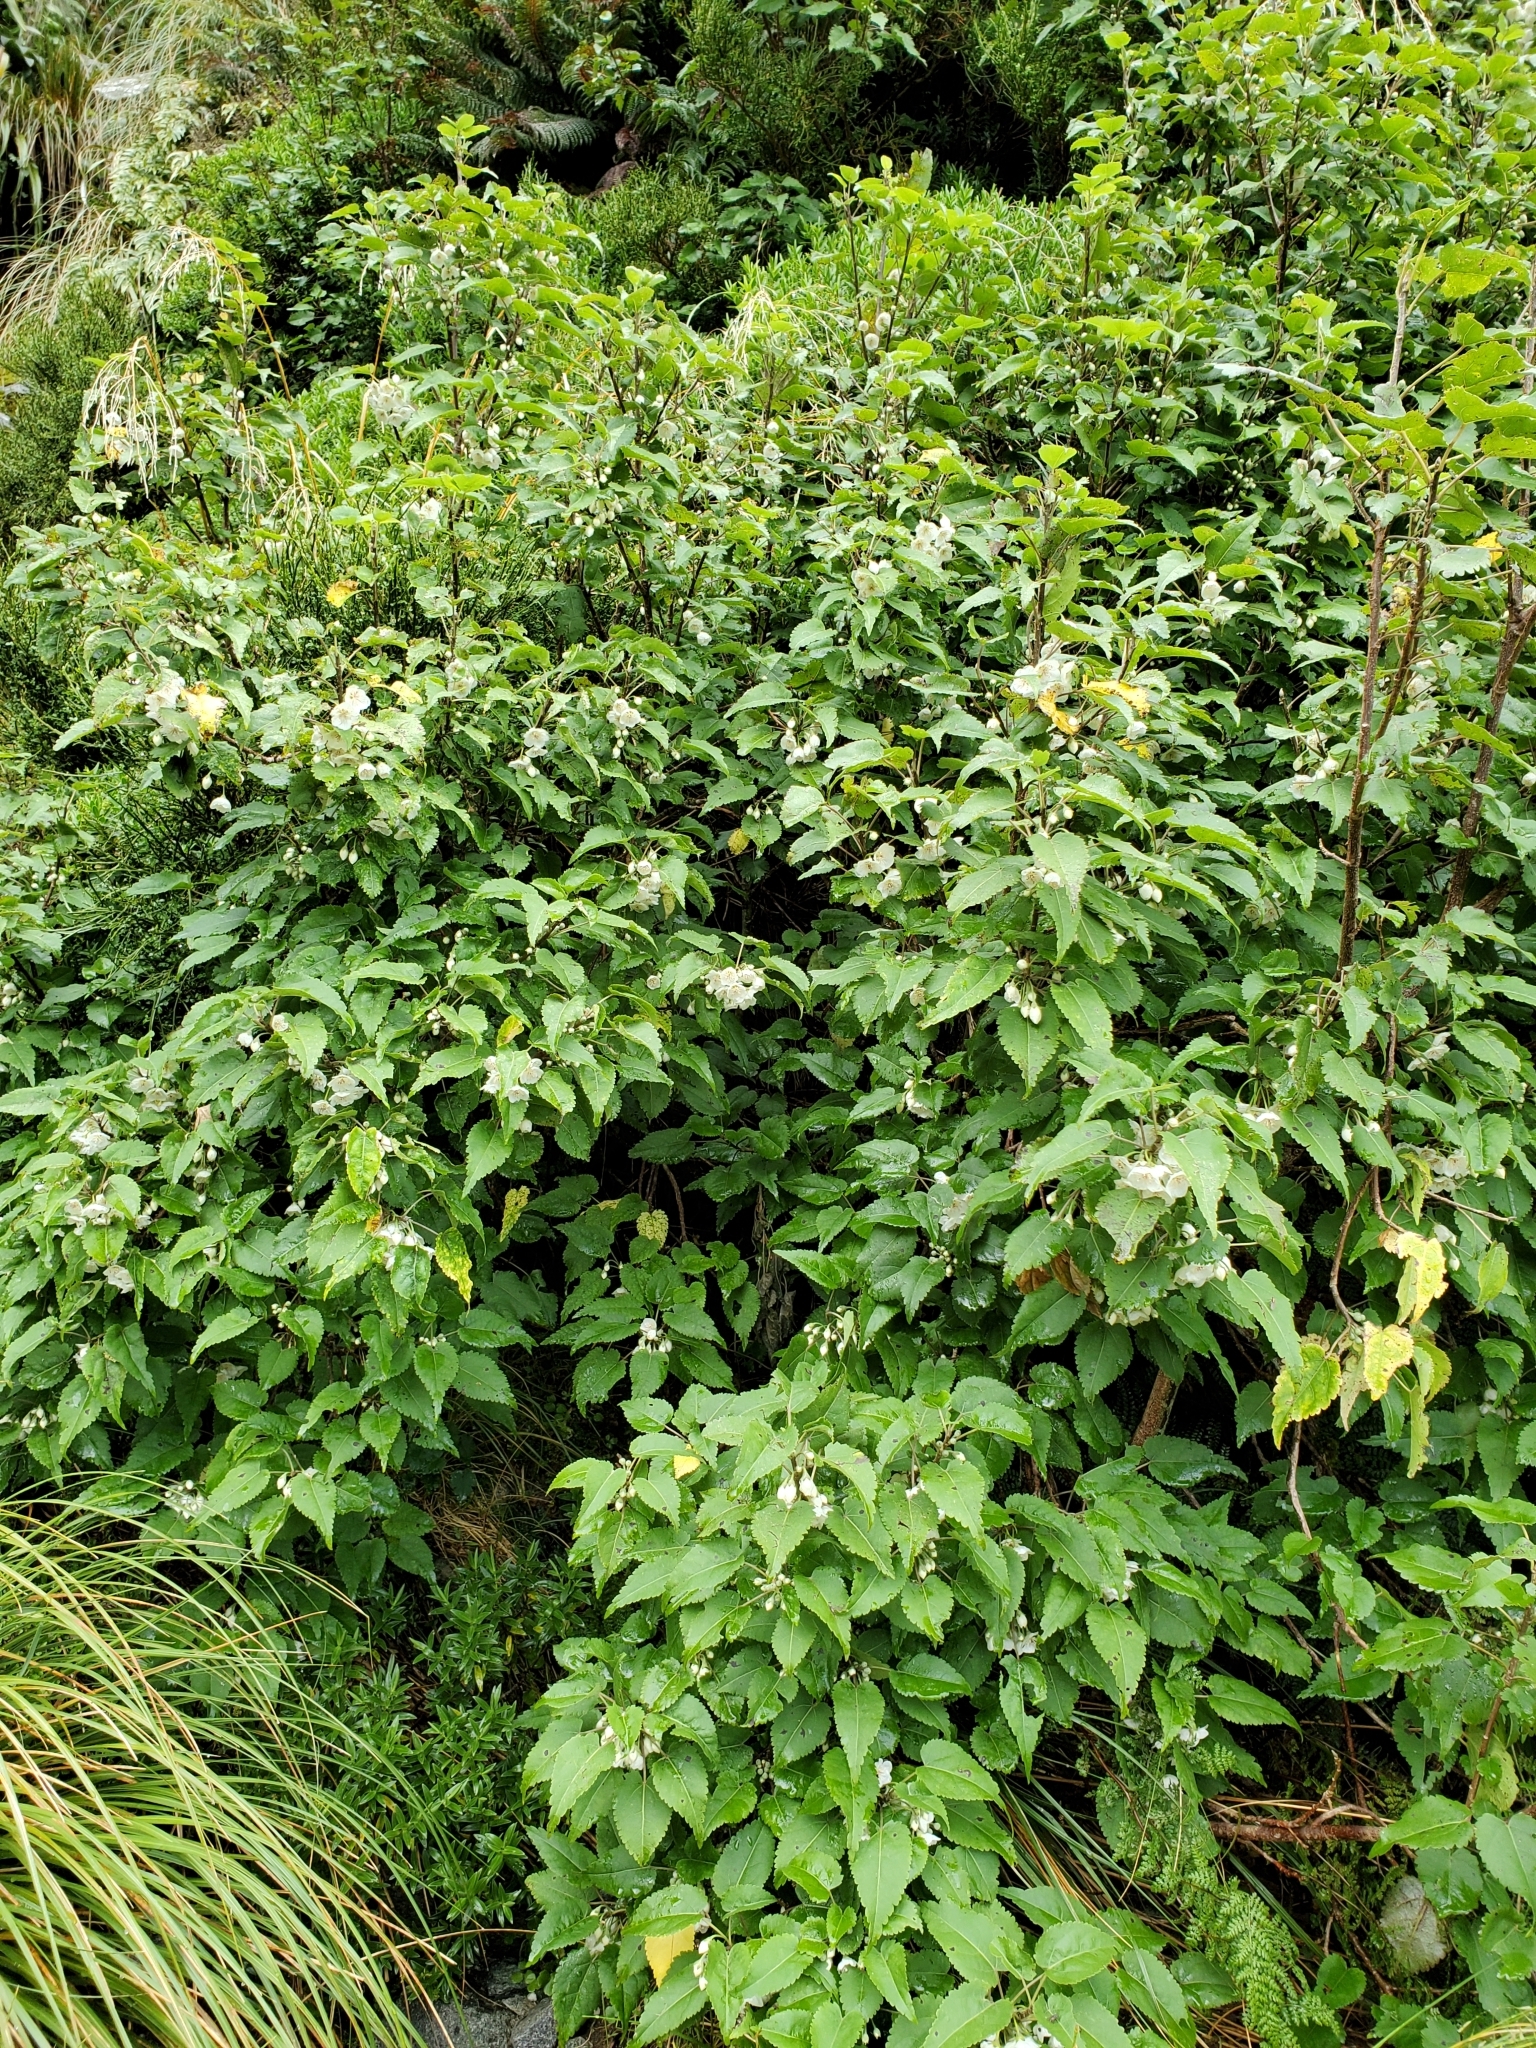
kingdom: Plantae
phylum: Tracheophyta
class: Magnoliopsida
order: Malvales
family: Malvaceae
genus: Hoheria
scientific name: Hoheria glabrata
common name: Mountain-ribbon
